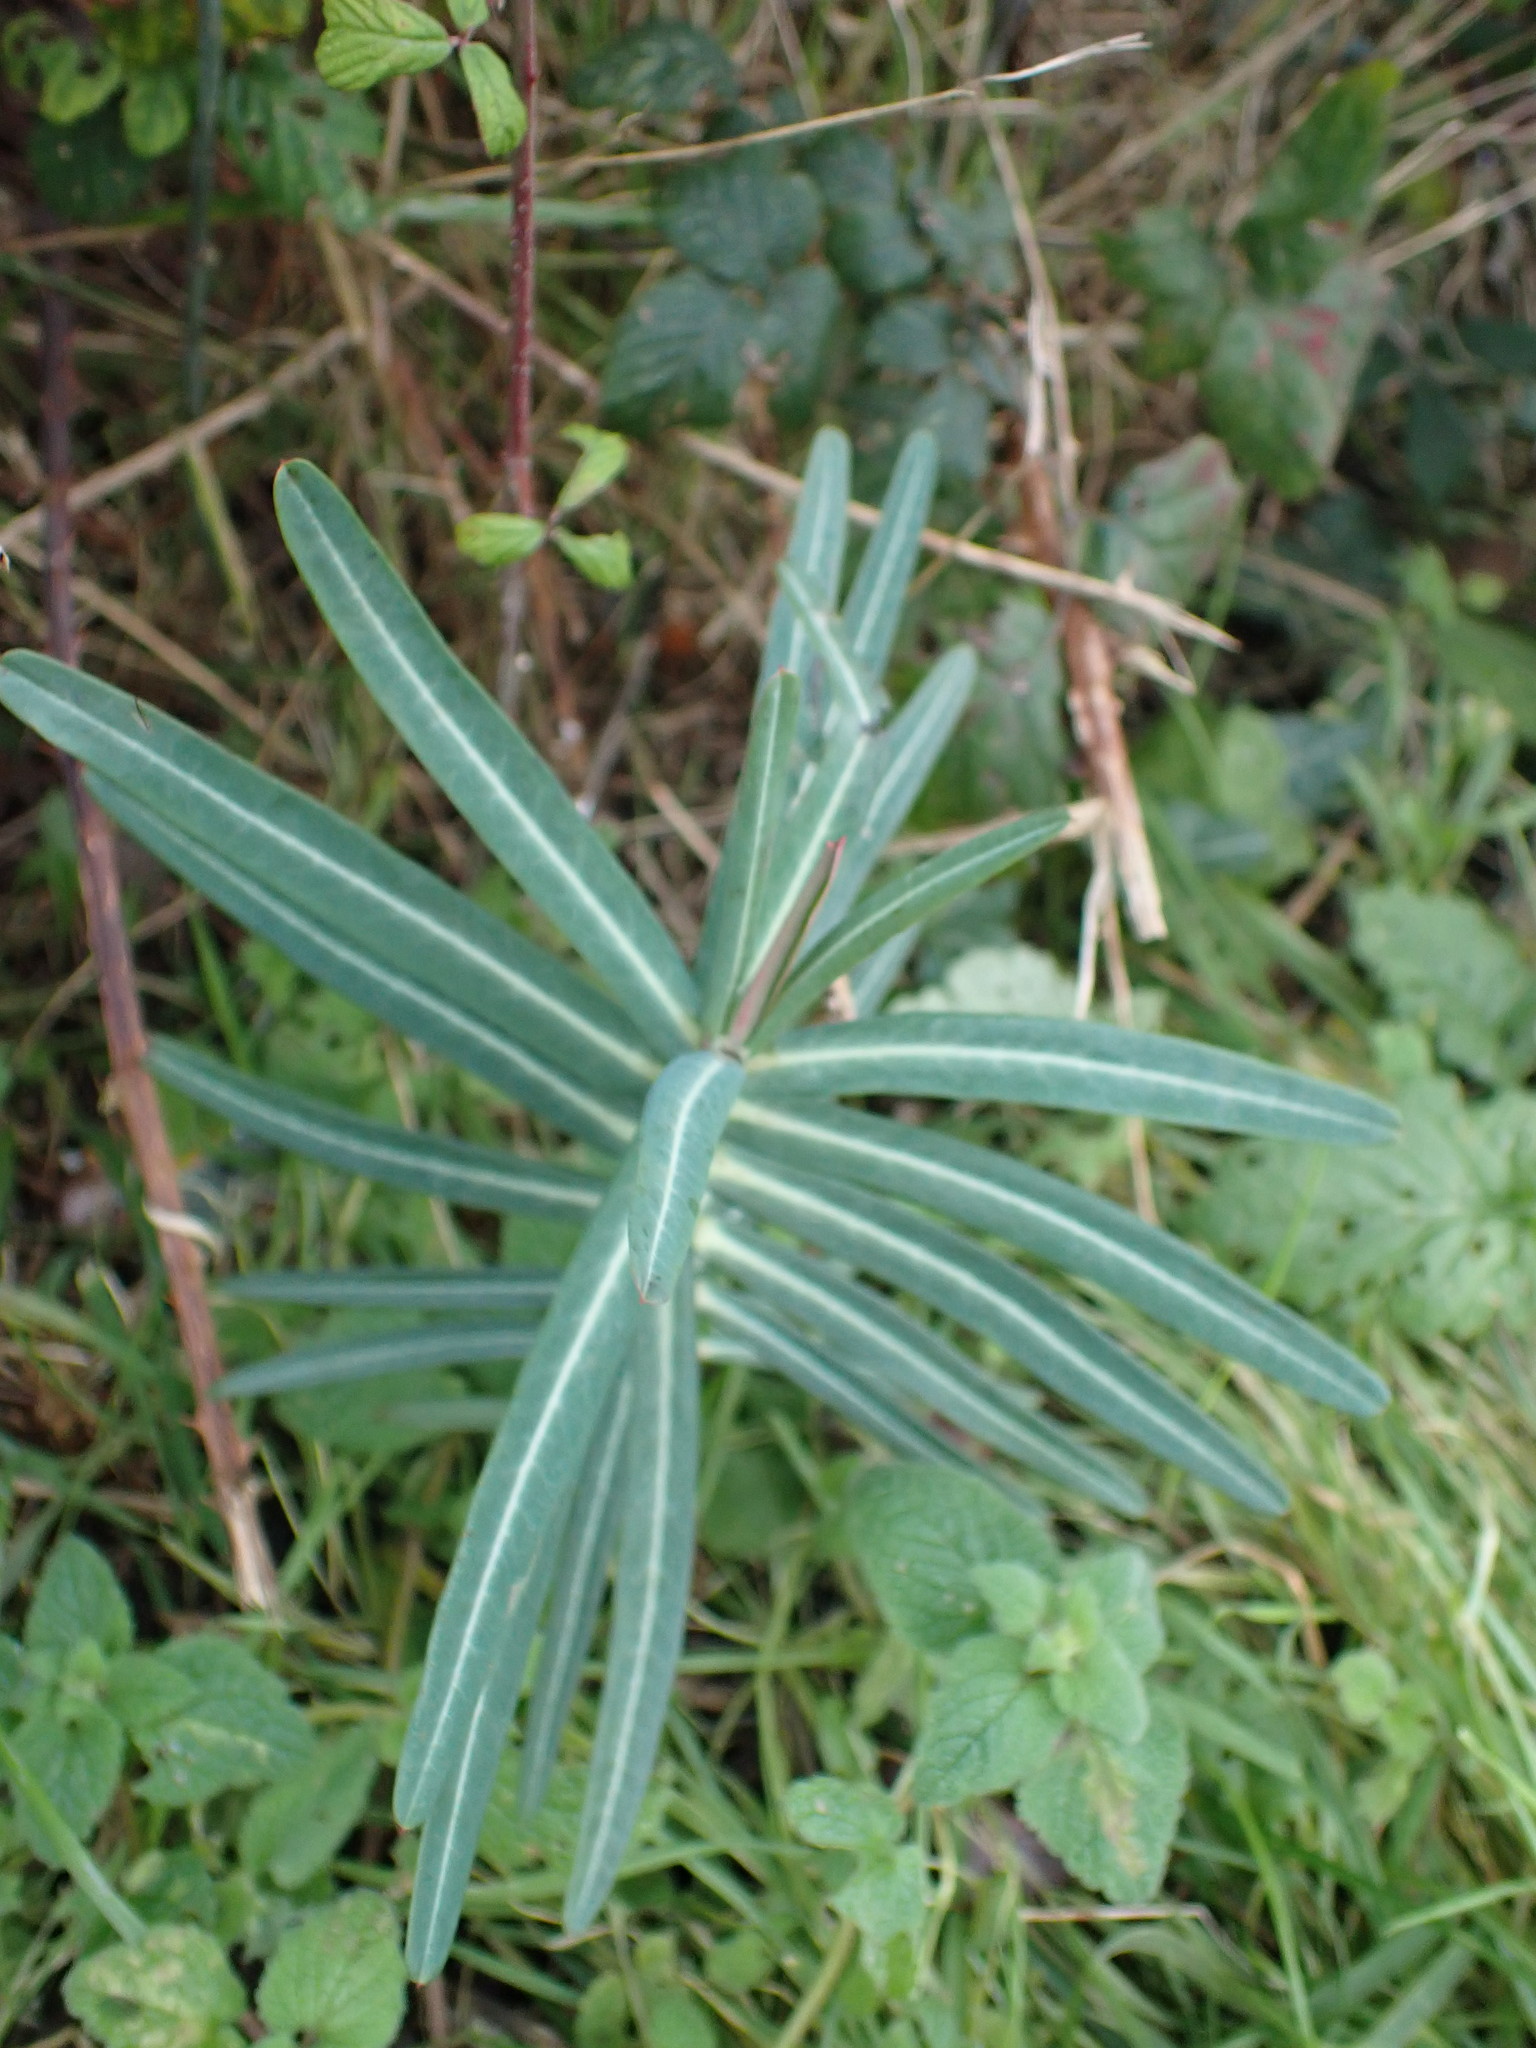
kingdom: Plantae
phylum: Tracheophyta
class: Magnoliopsida
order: Malpighiales
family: Euphorbiaceae
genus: Euphorbia
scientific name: Euphorbia lathyris
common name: Caper spurge
